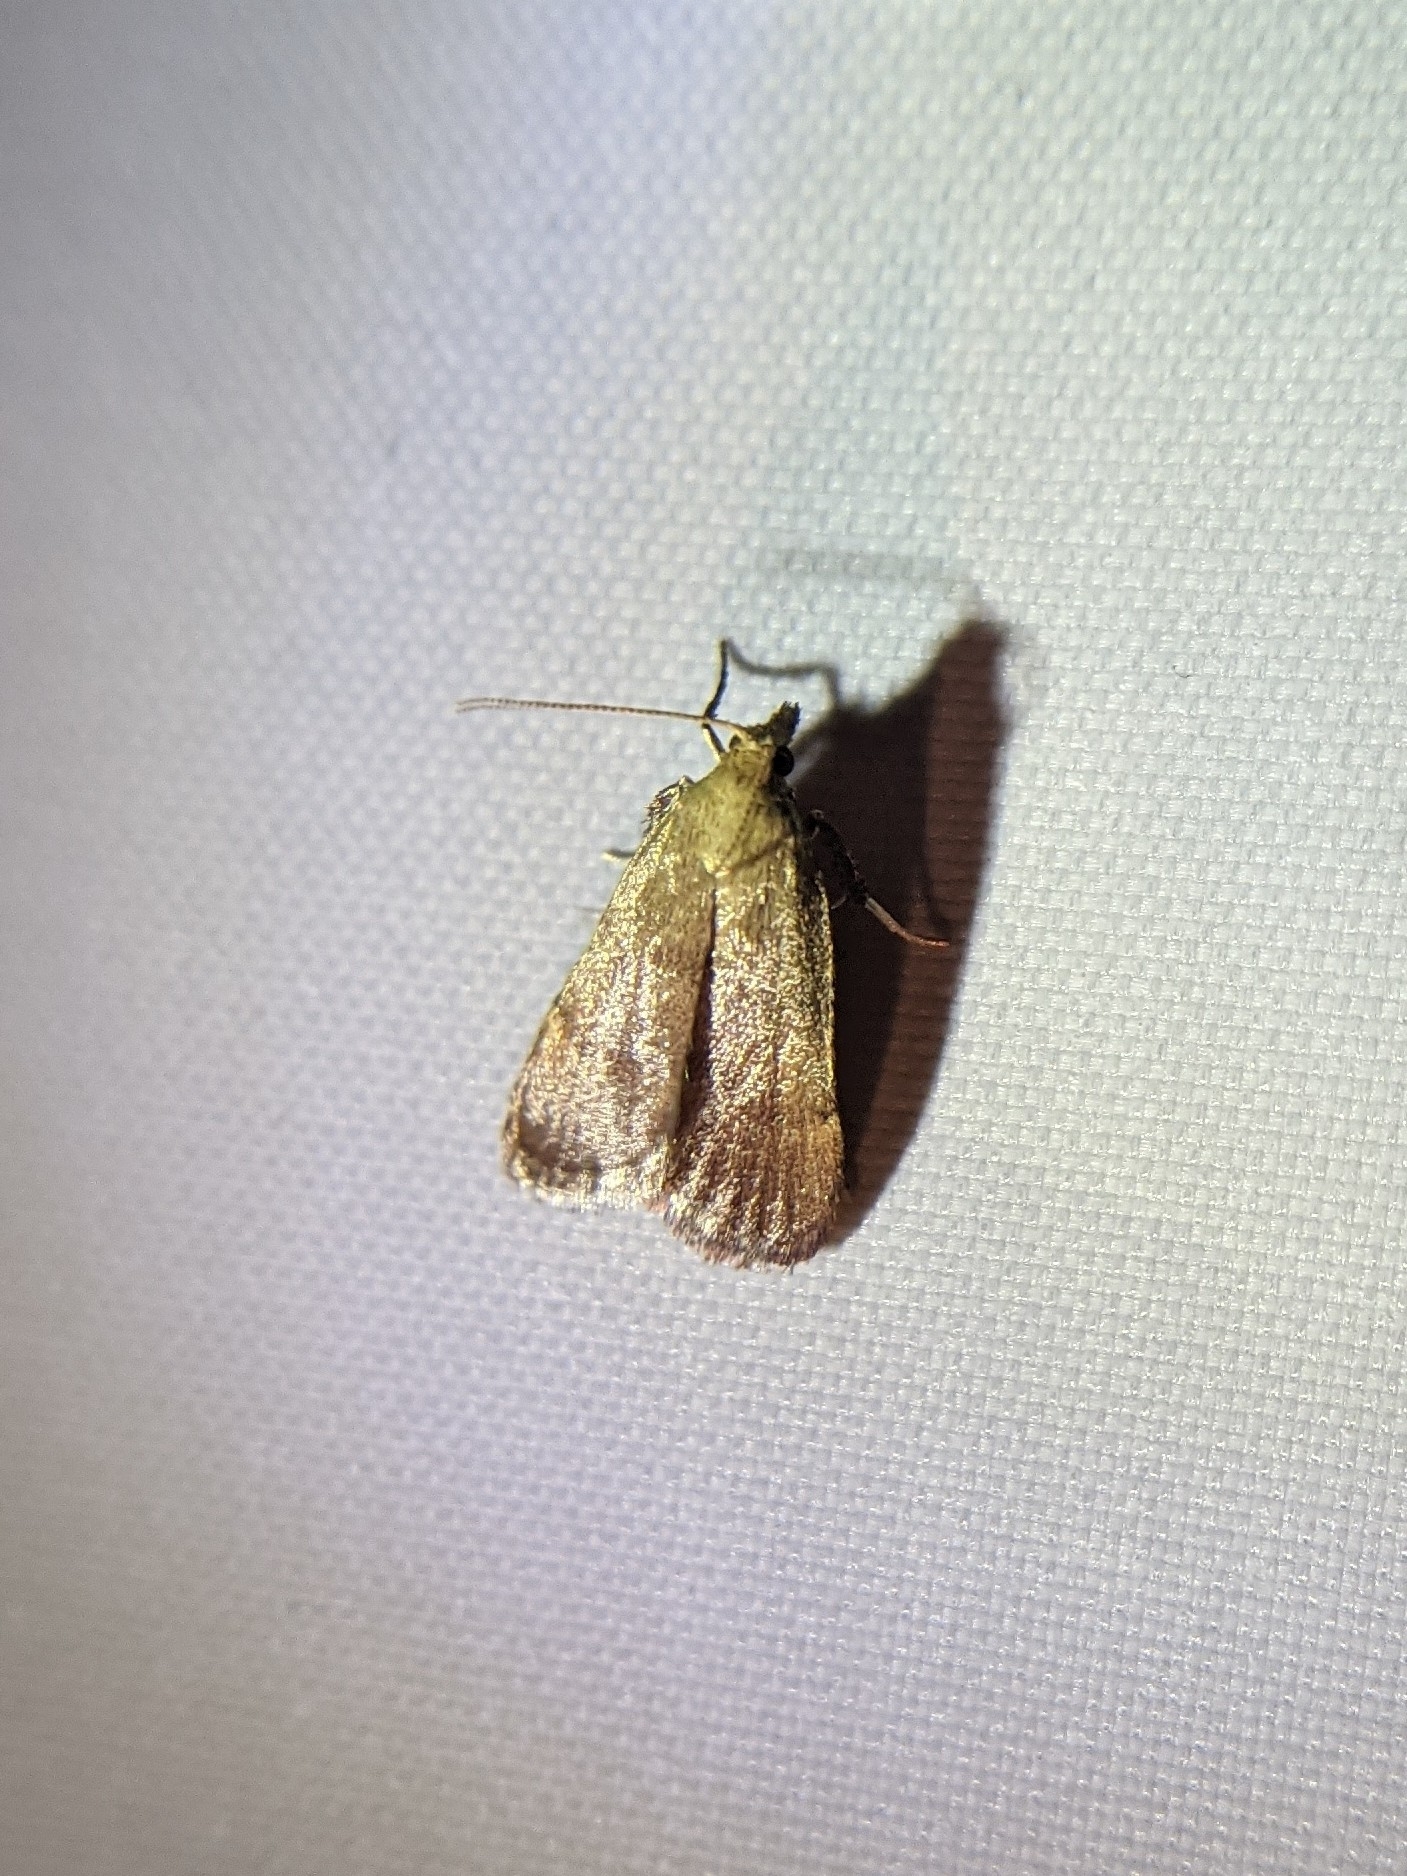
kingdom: Animalia
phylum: Arthropoda
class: Insecta
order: Lepidoptera
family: Pyralidae
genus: Condylolomia
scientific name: Condylolomia participialis
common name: Drab condylolomia moth
